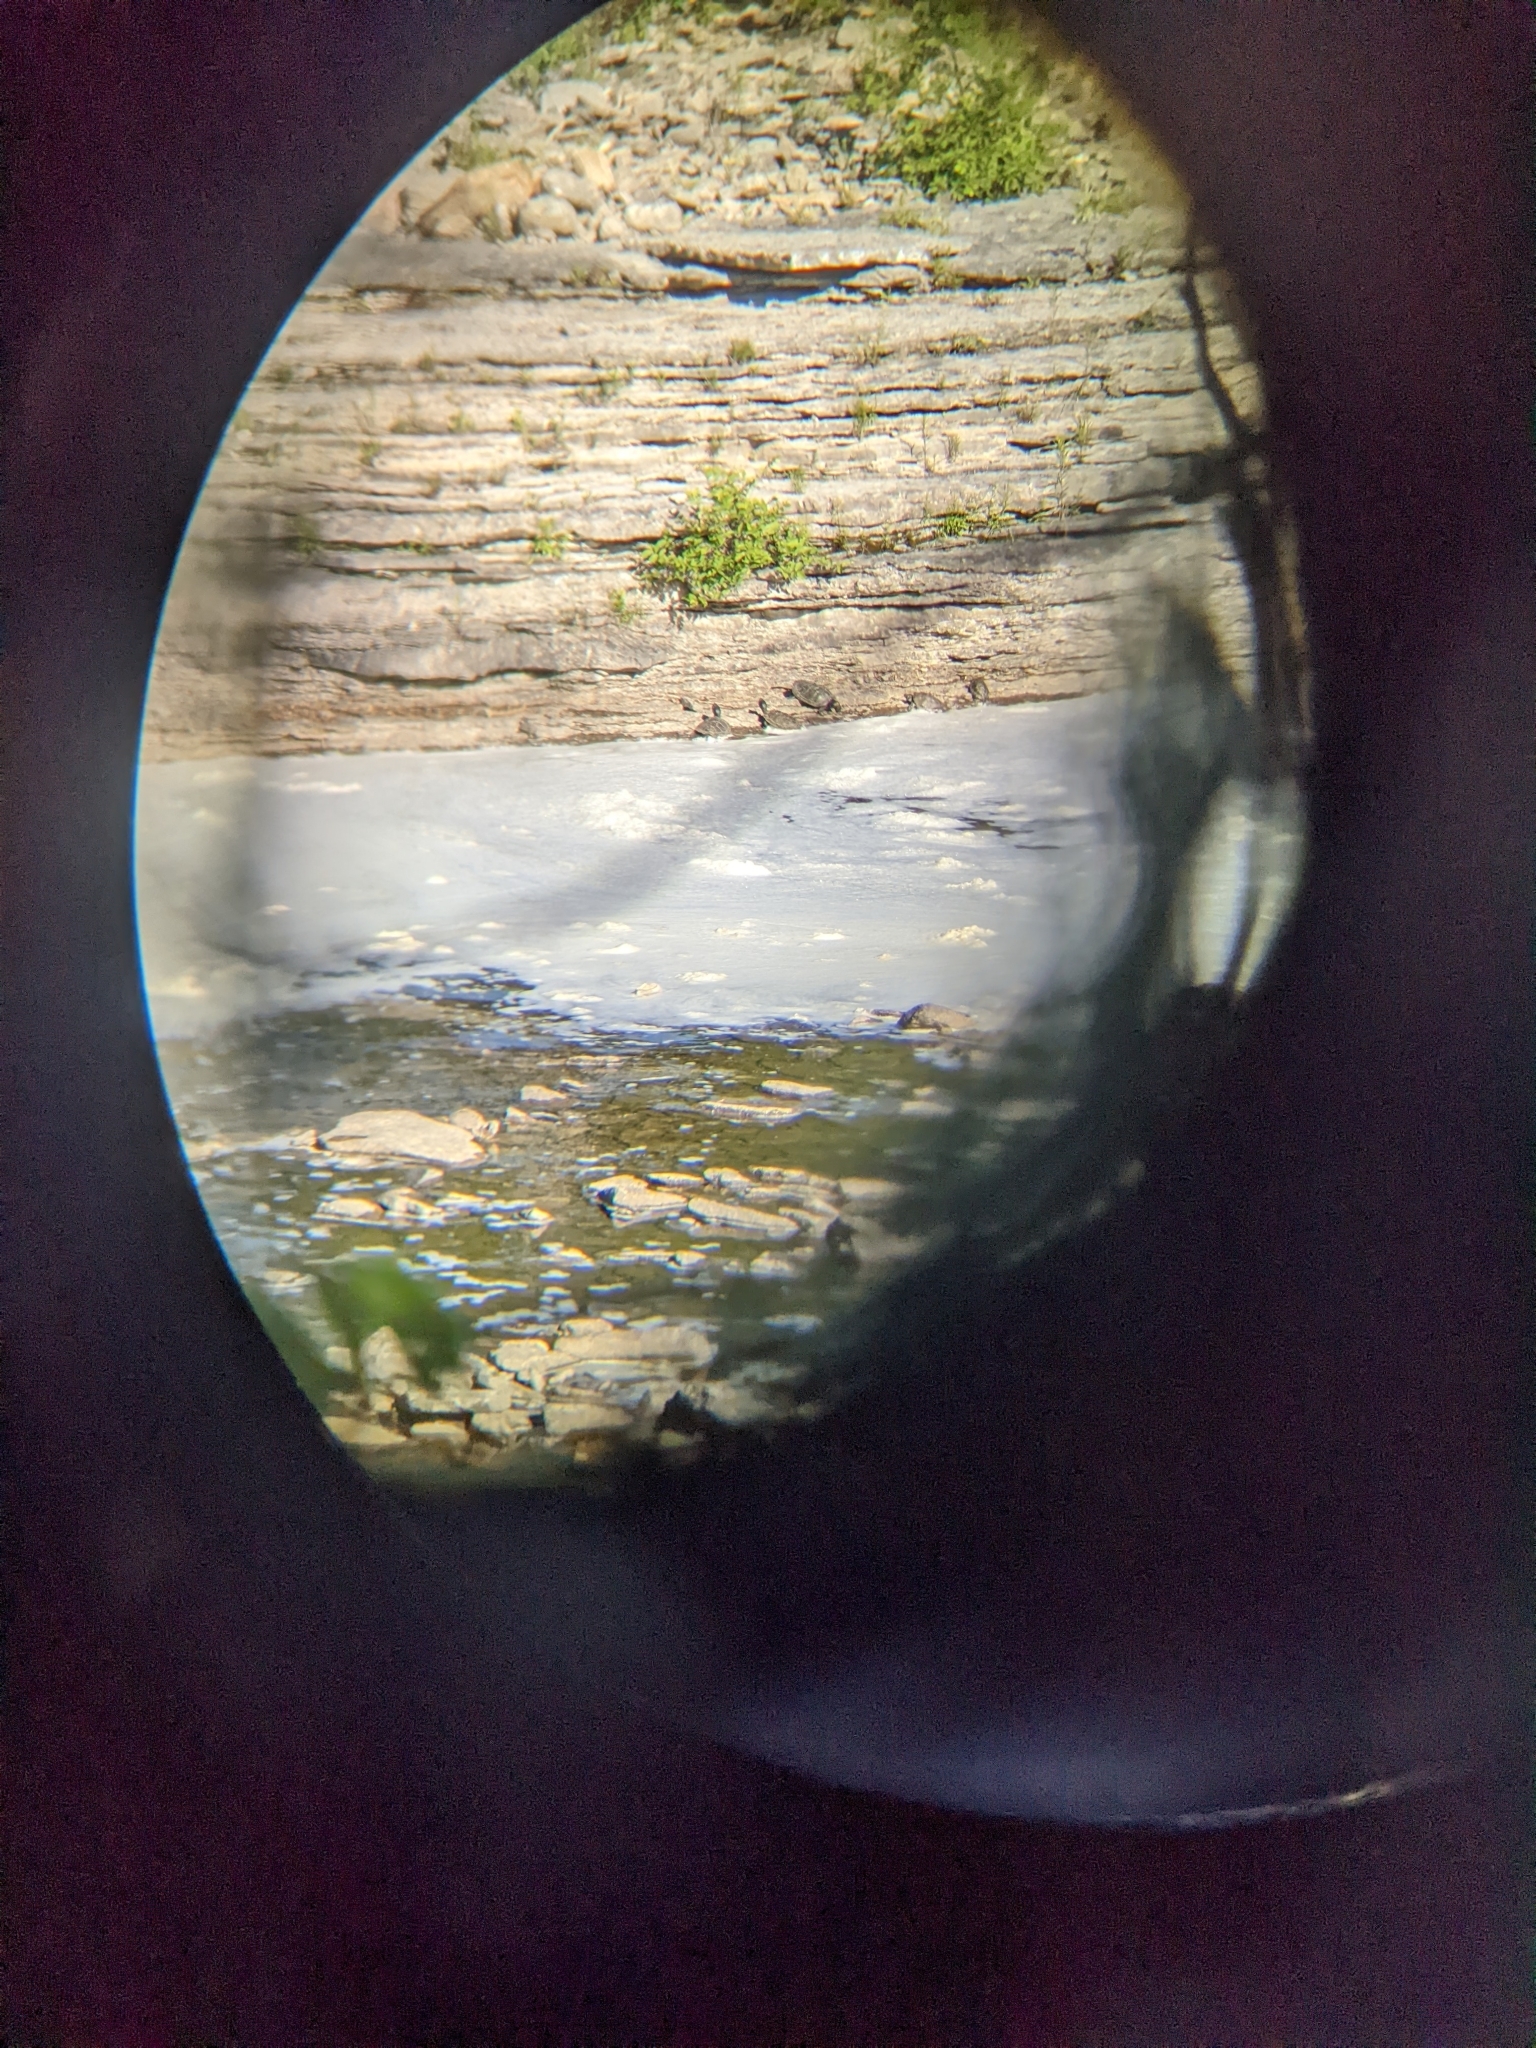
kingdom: Animalia
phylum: Chordata
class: Testudines
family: Emydidae
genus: Graptemys
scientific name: Graptemys geographica
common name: Common map turtle
